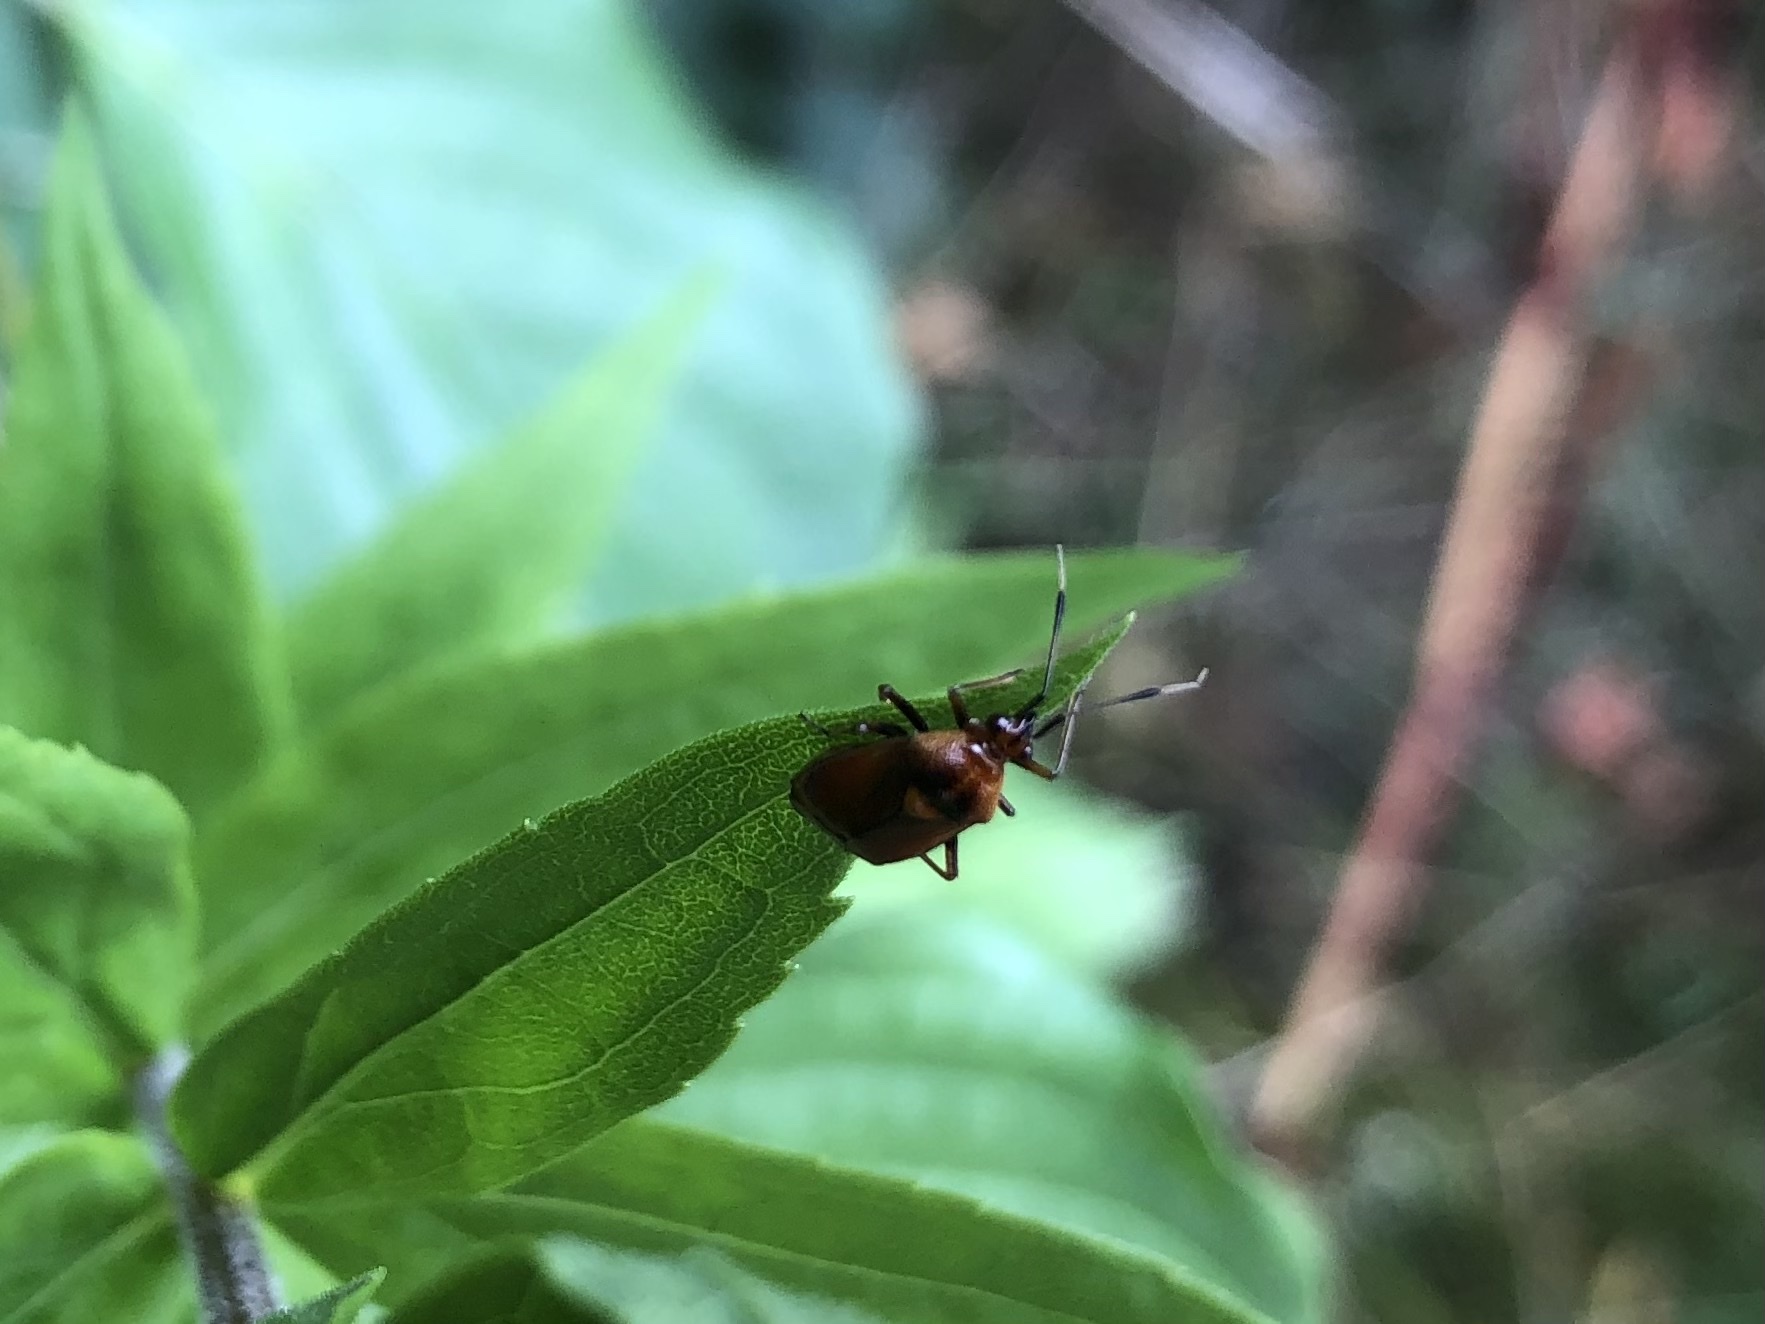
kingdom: Animalia
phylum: Arthropoda
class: Insecta
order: Hemiptera
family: Miridae
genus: Deraeocoris
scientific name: Deraeocoris ruber
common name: Plant bug
